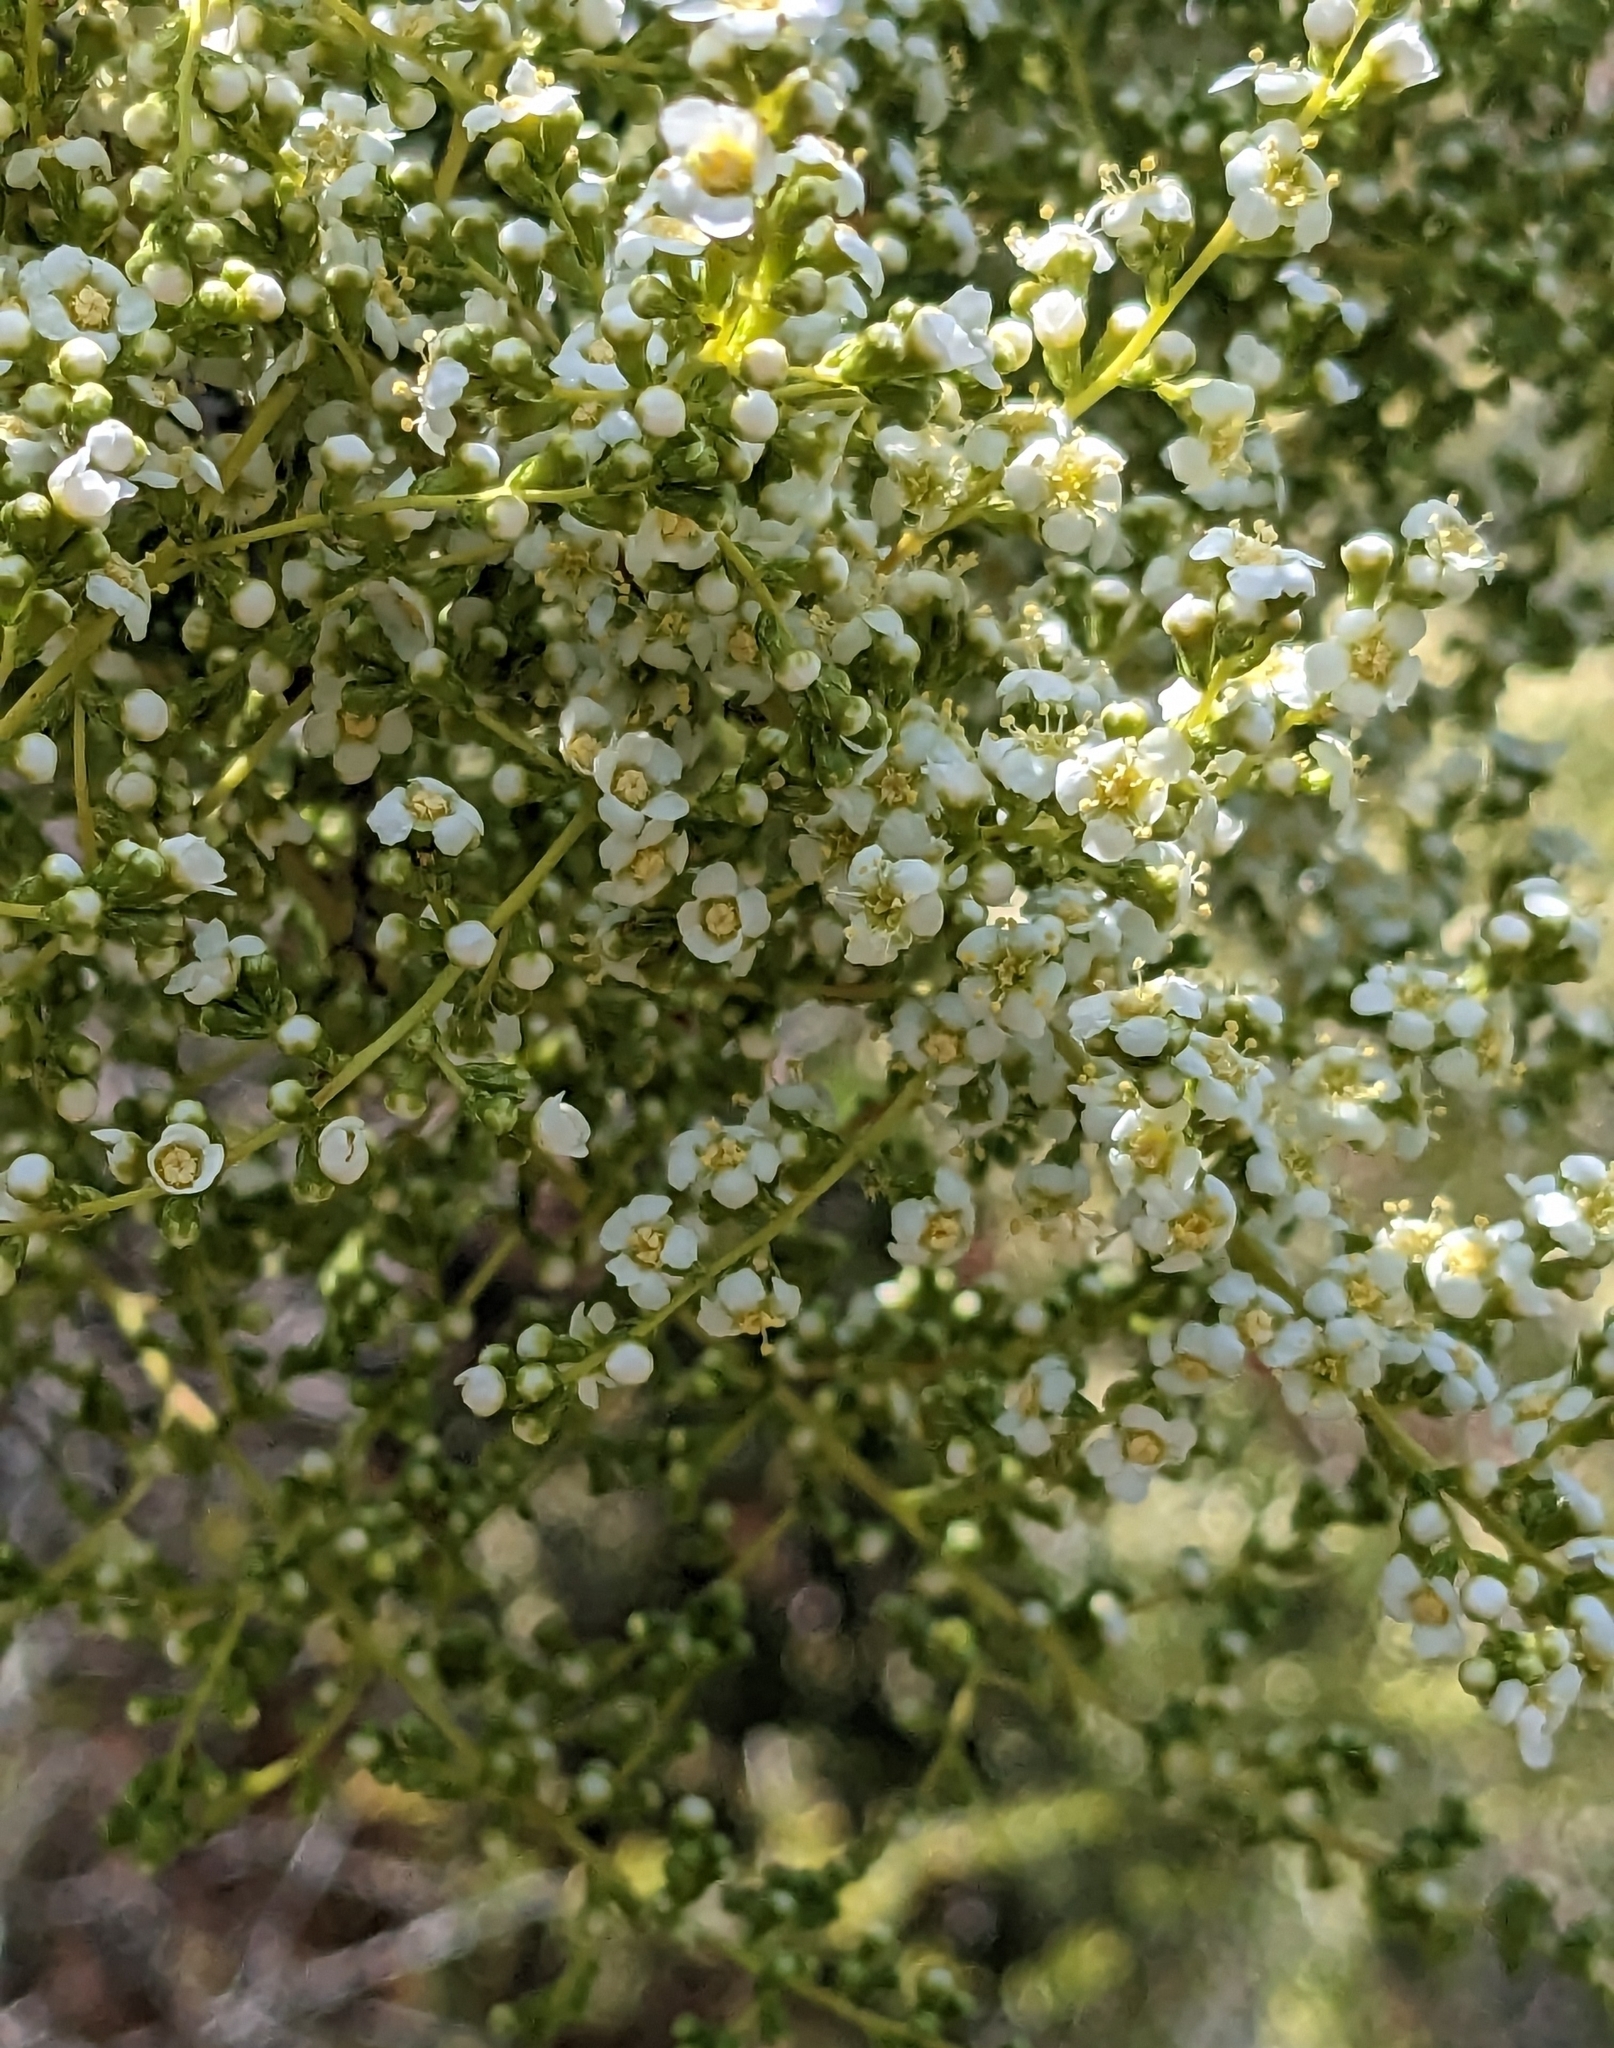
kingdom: Plantae
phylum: Tracheophyta
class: Magnoliopsida
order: Rosales
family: Rosaceae
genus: Adenostoma
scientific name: Adenostoma fasciculatum
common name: Chamise
